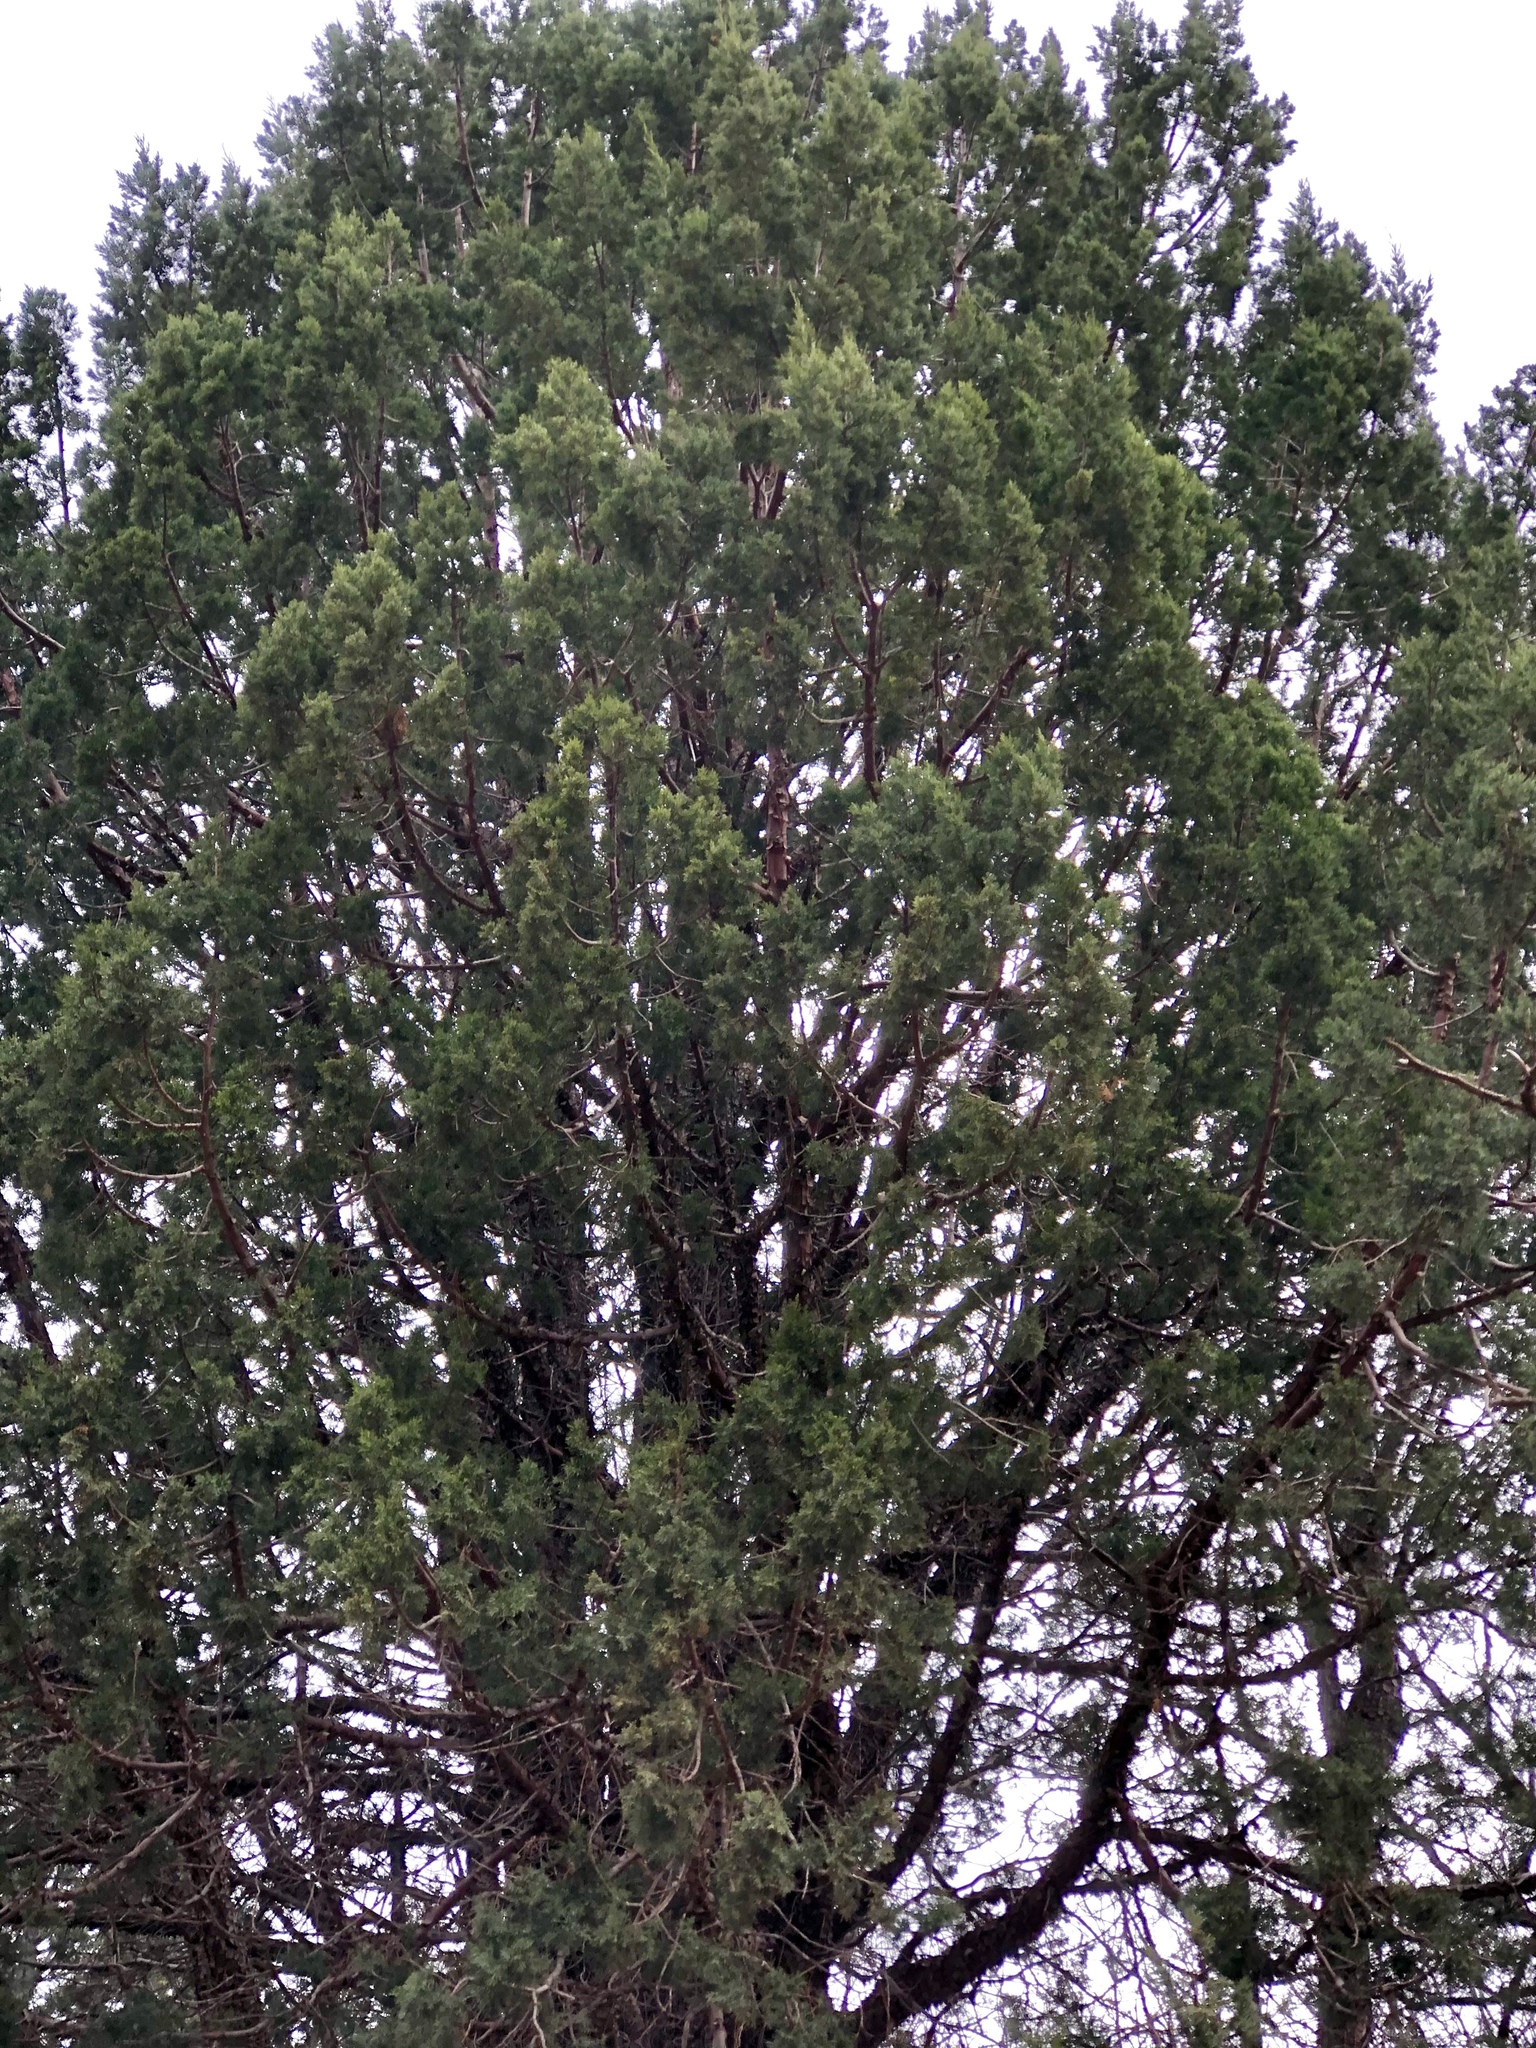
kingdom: Plantae
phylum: Tracheophyta
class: Pinopsida
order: Pinales
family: Cupressaceae
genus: Juniperus
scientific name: Juniperus deppeana
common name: Alligator juniper
